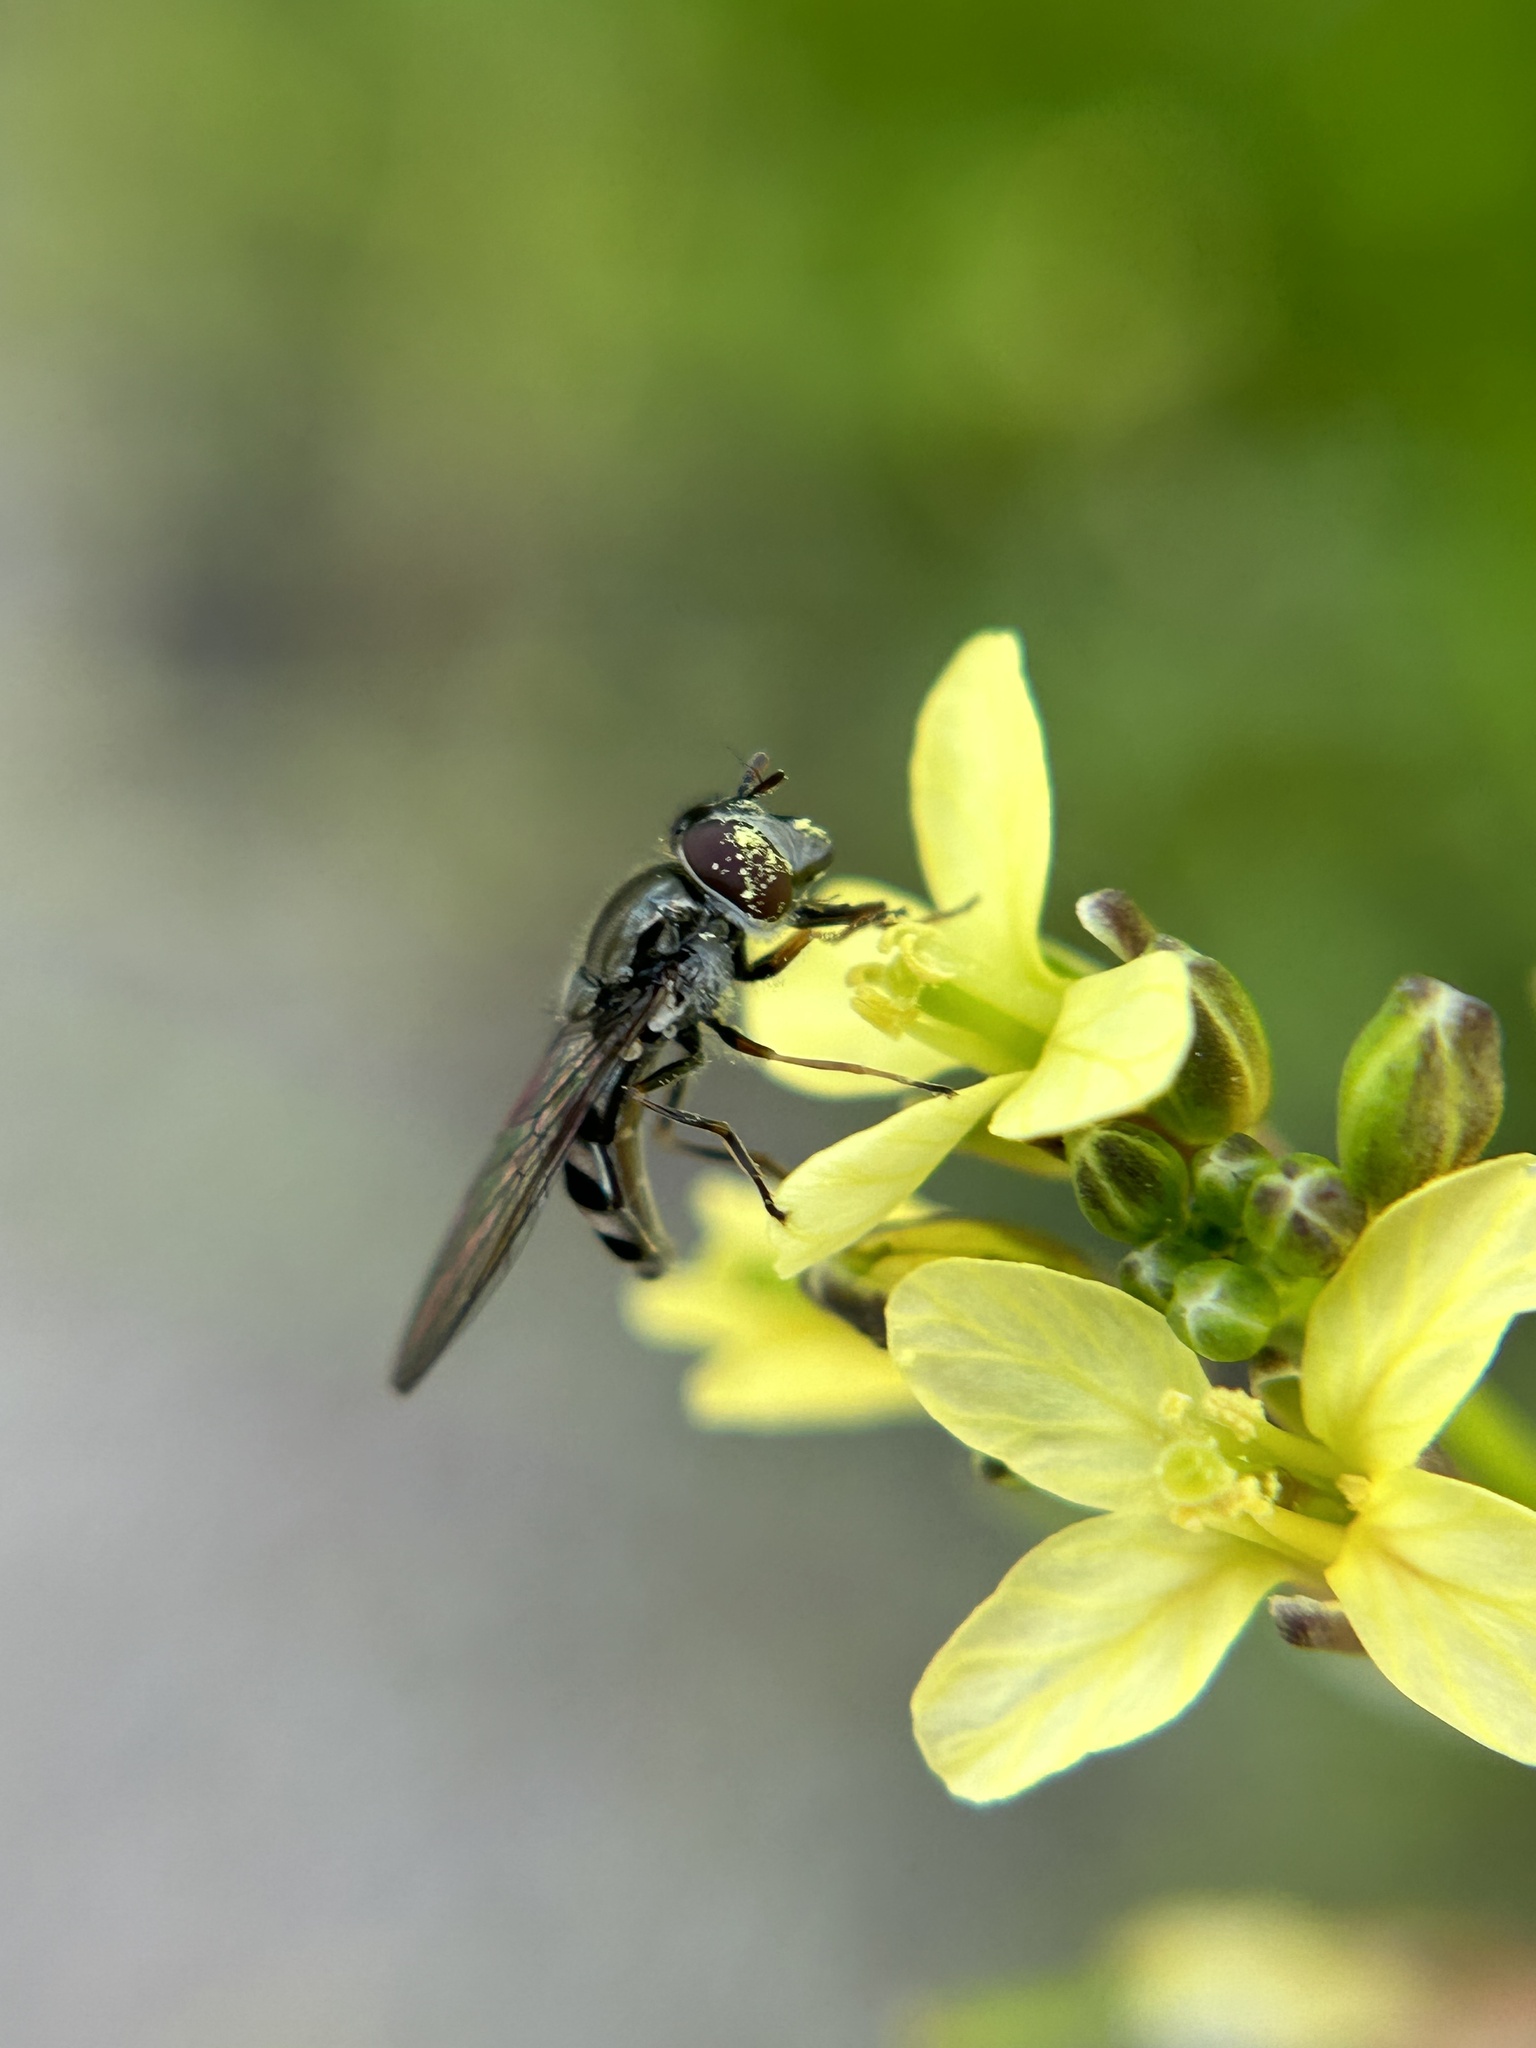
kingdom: Animalia
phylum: Arthropoda
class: Insecta
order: Diptera
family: Syrphidae
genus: Platycheirus
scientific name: Platycheirus trichopus
